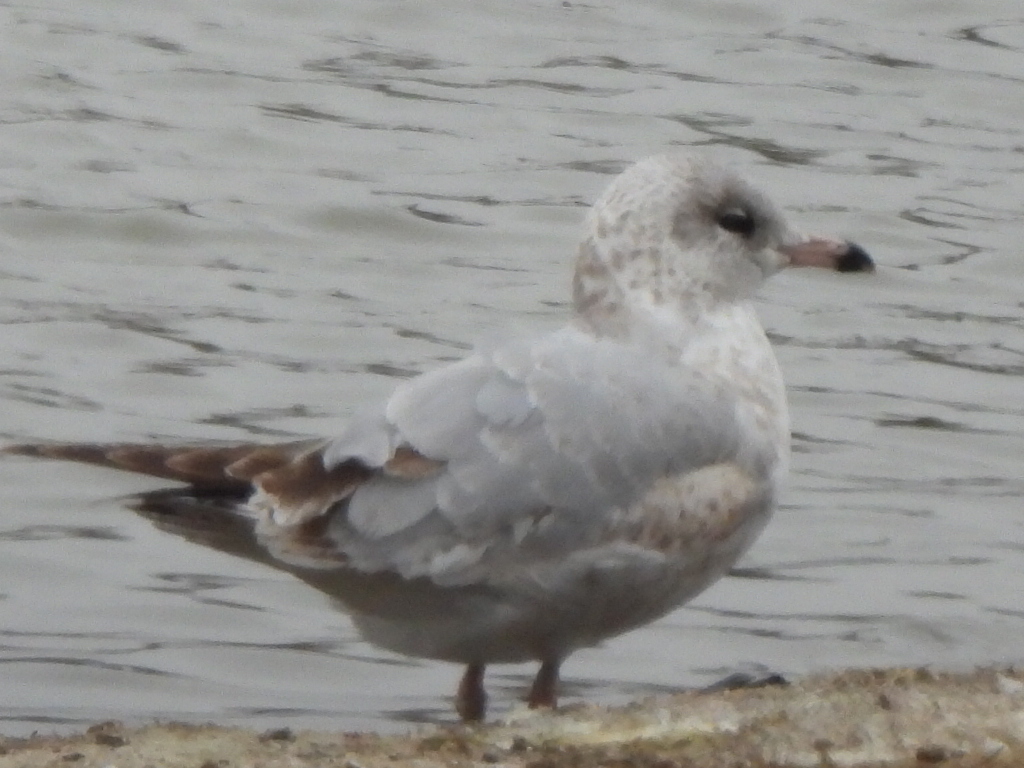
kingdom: Animalia
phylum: Chordata
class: Aves
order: Charadriiformes
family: Laridae
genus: Larus
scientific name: Larus delawarensis
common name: Ring-billed gull
